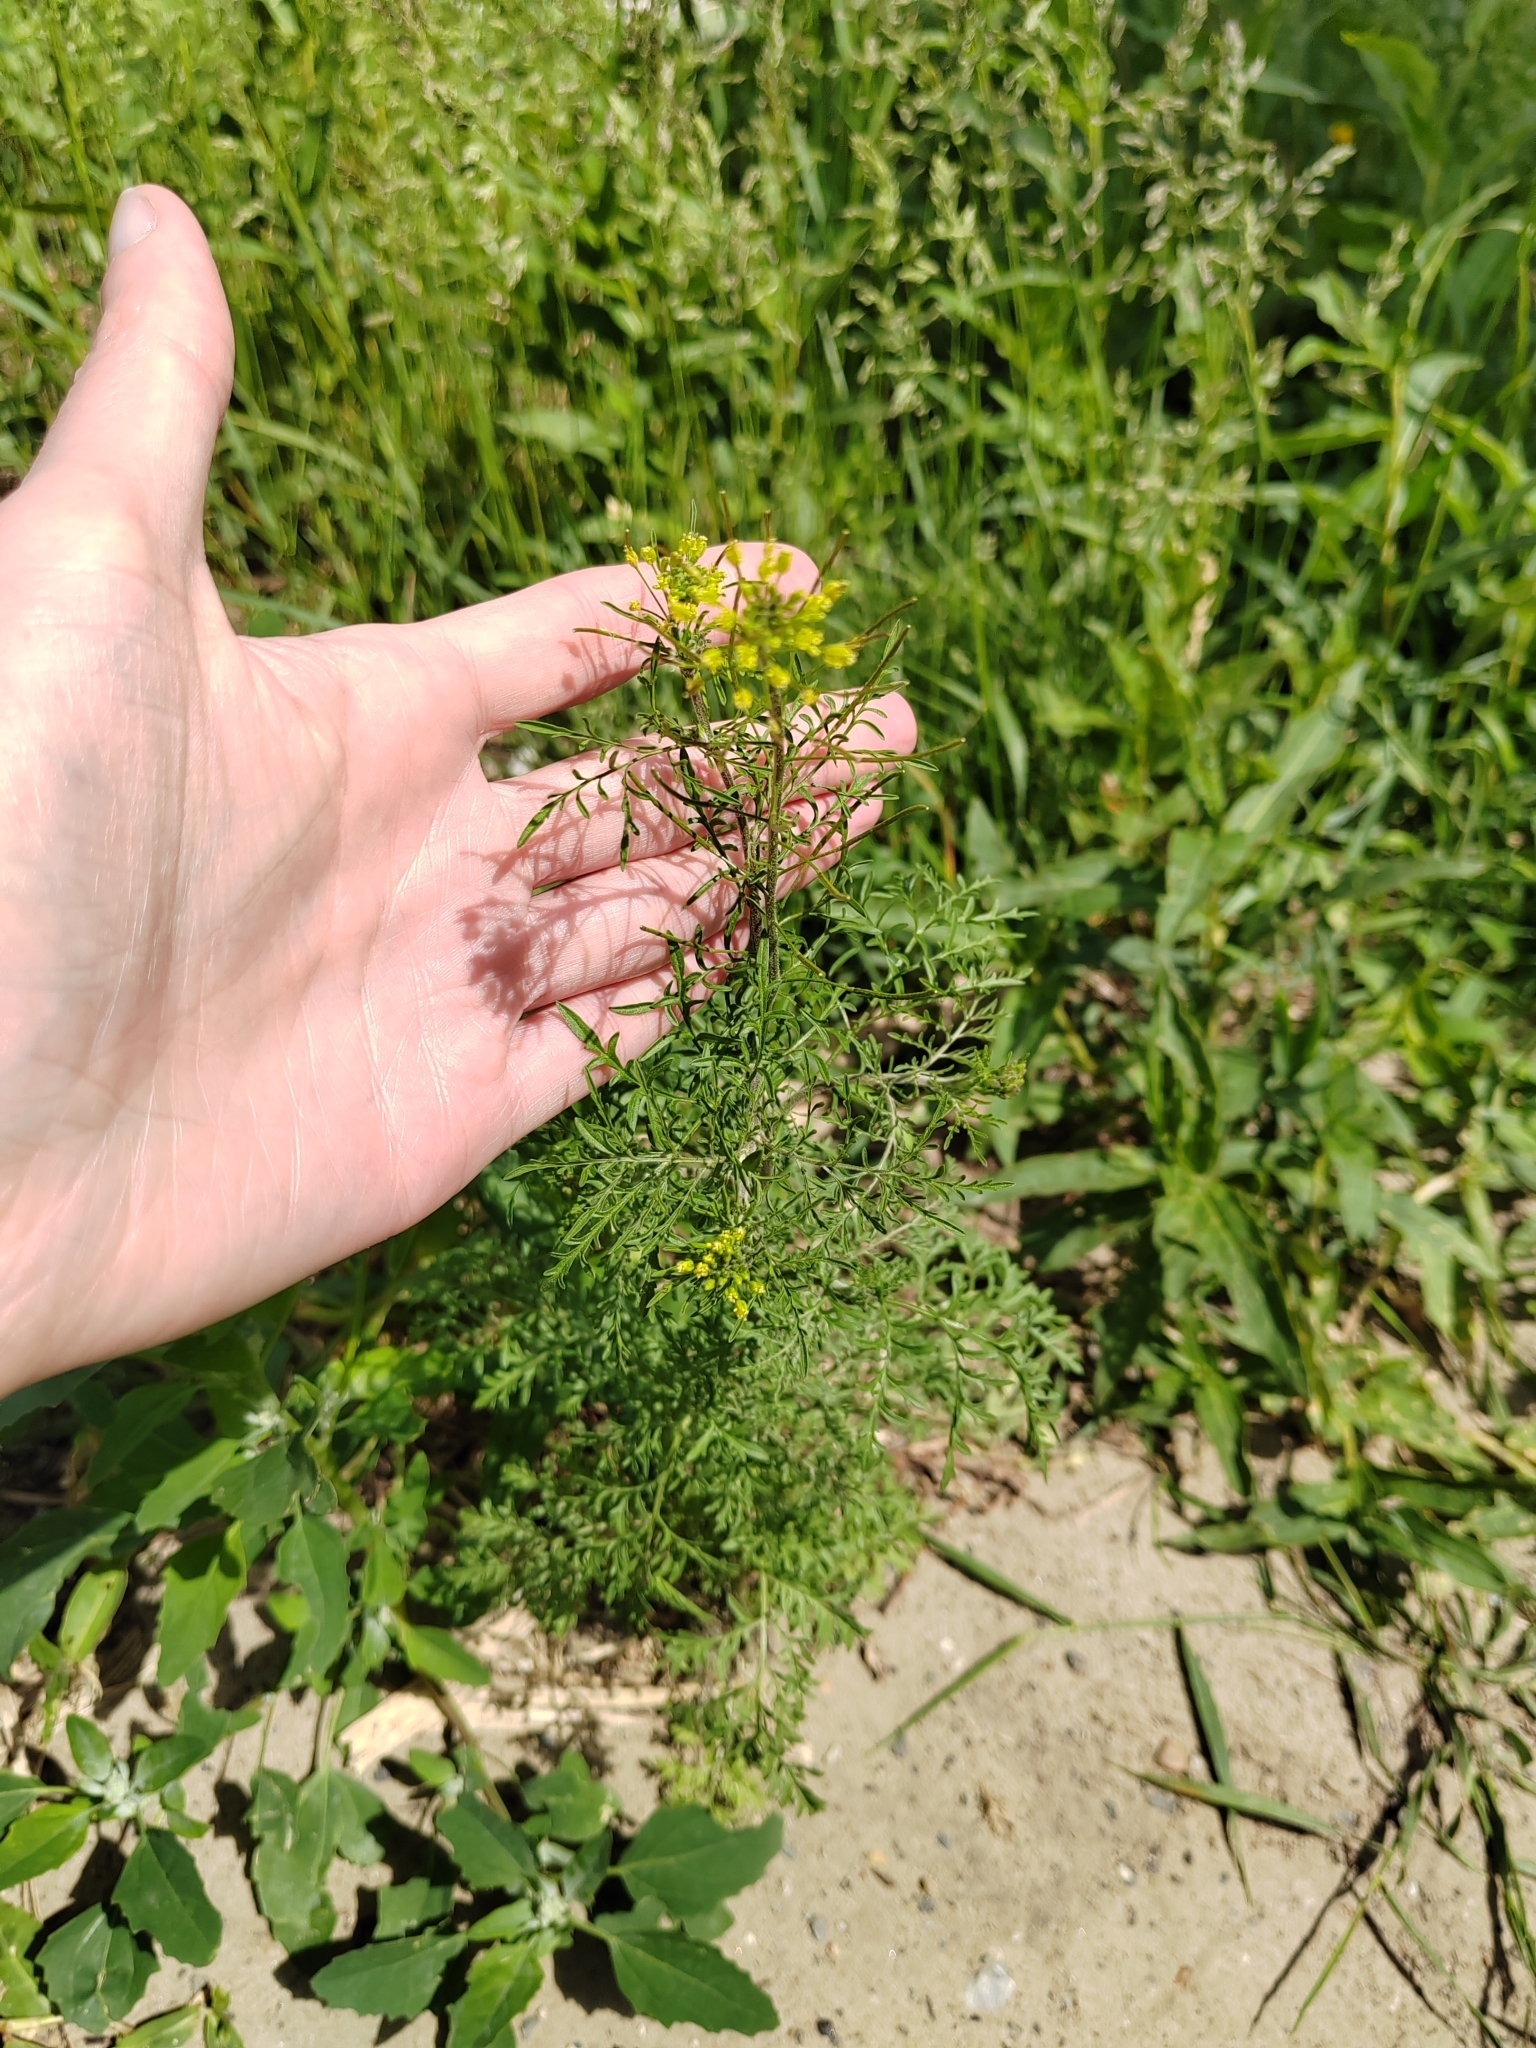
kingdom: Plantae
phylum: Tracheophyta
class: Magnoliopsida
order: Brassicales
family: Brassicaceae
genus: Descurainia
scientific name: Descurainia sophia
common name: Flixweed
